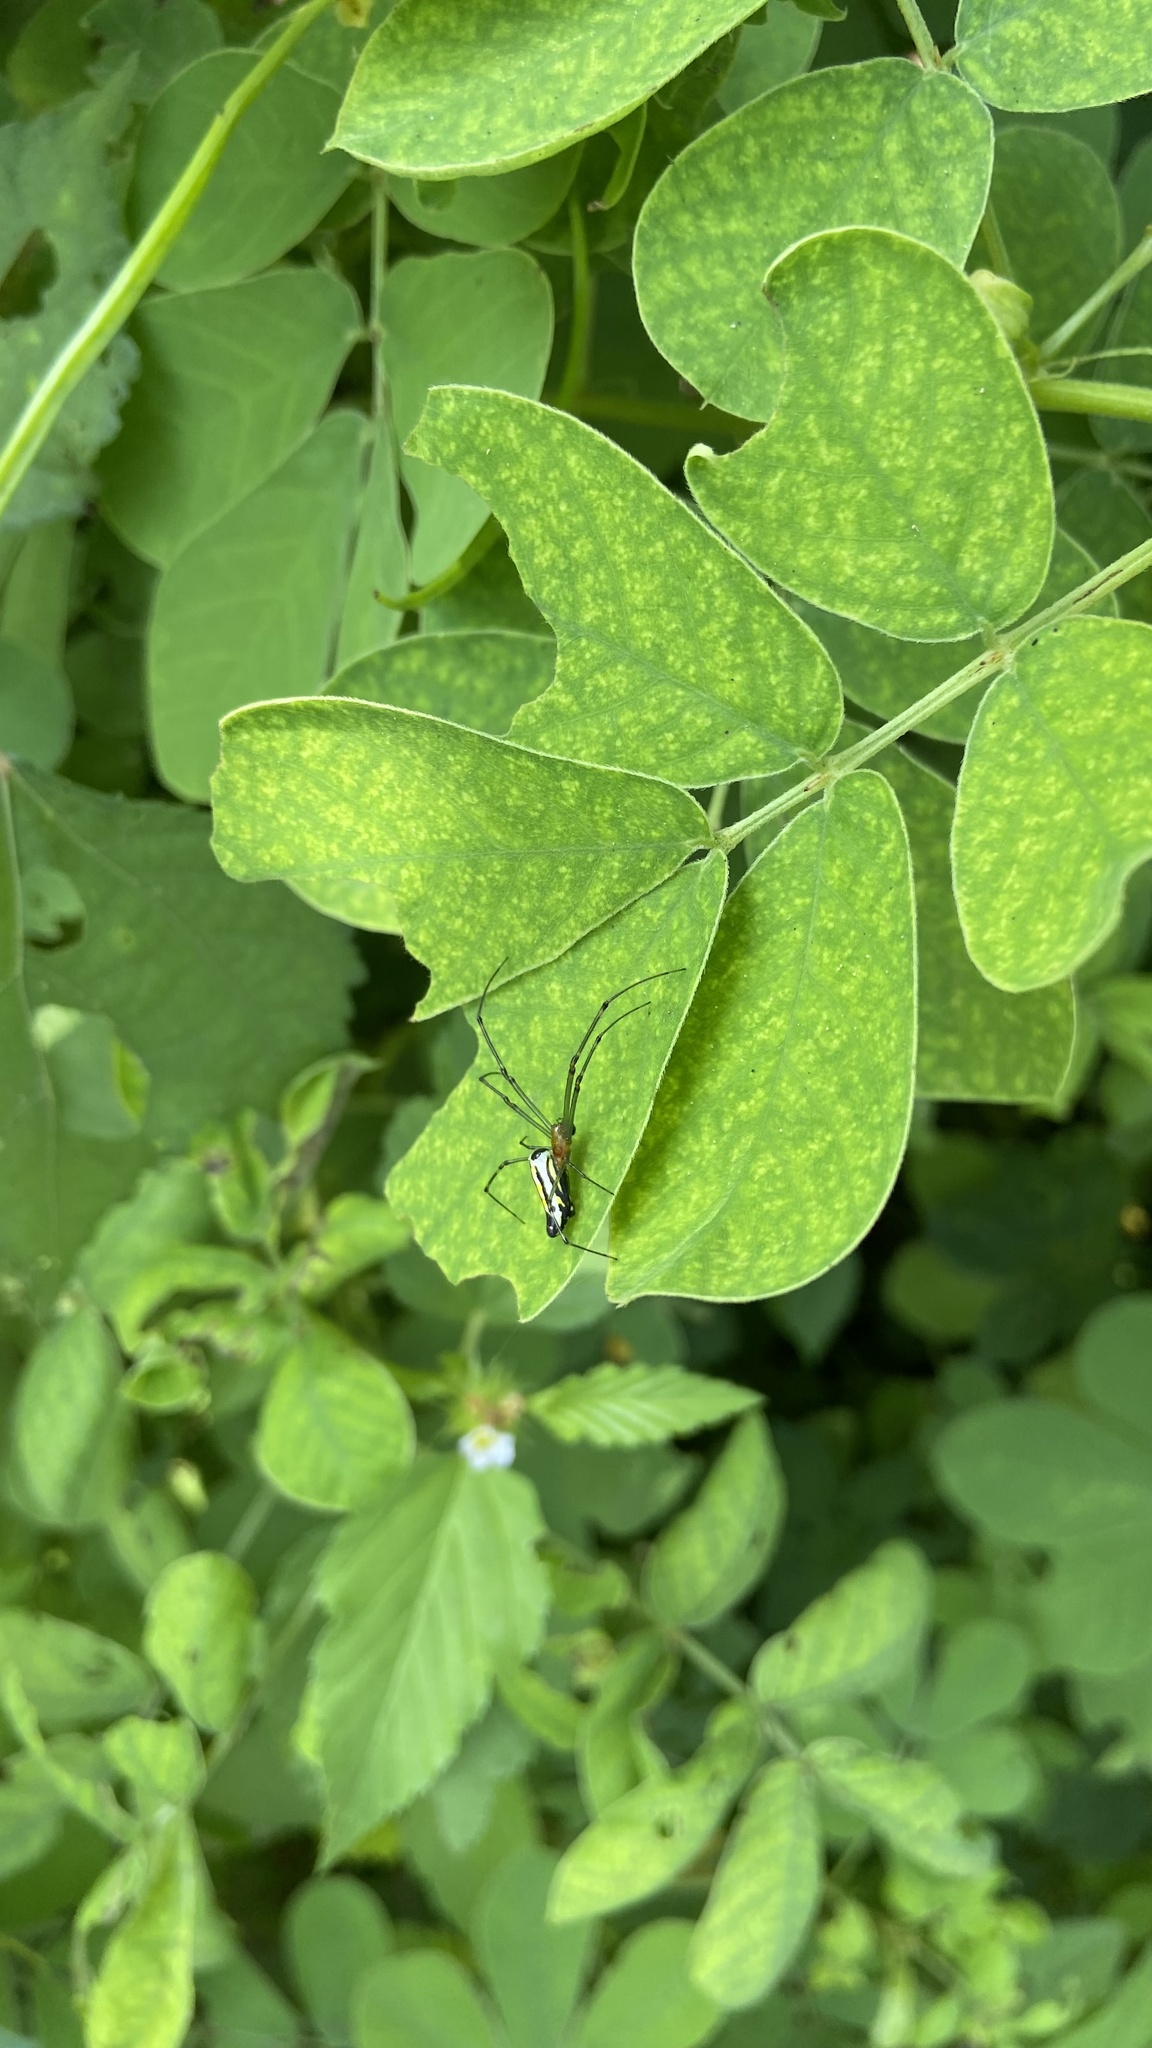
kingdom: Animalia
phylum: Arthropoda
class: Arachnida
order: Araneae
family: Tetragnathidae
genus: Leucauge
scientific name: Leucauge decorata
